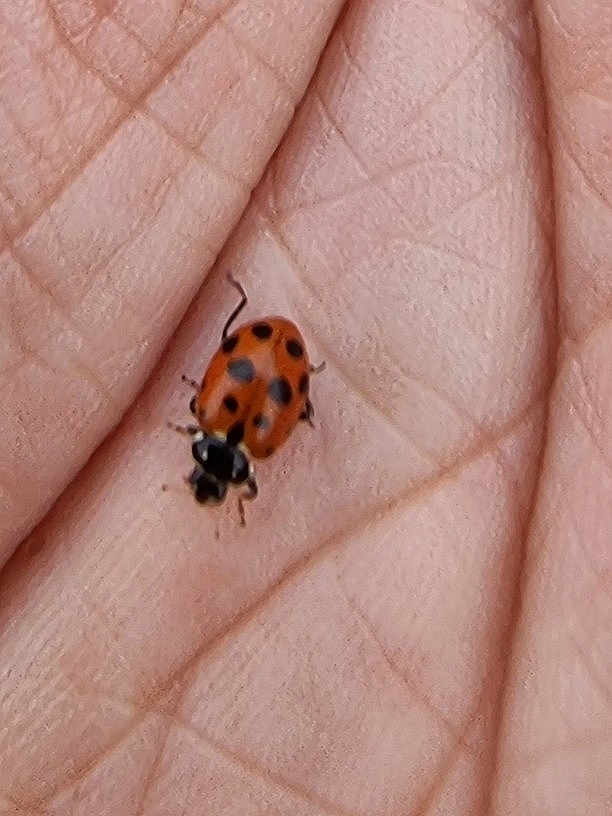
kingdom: Animalia
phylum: Arthropoda
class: Insecta
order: Coleoptera
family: Coccinellidae
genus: Hippodamia
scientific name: Hippodamia variegata
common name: Ladybird beetle
